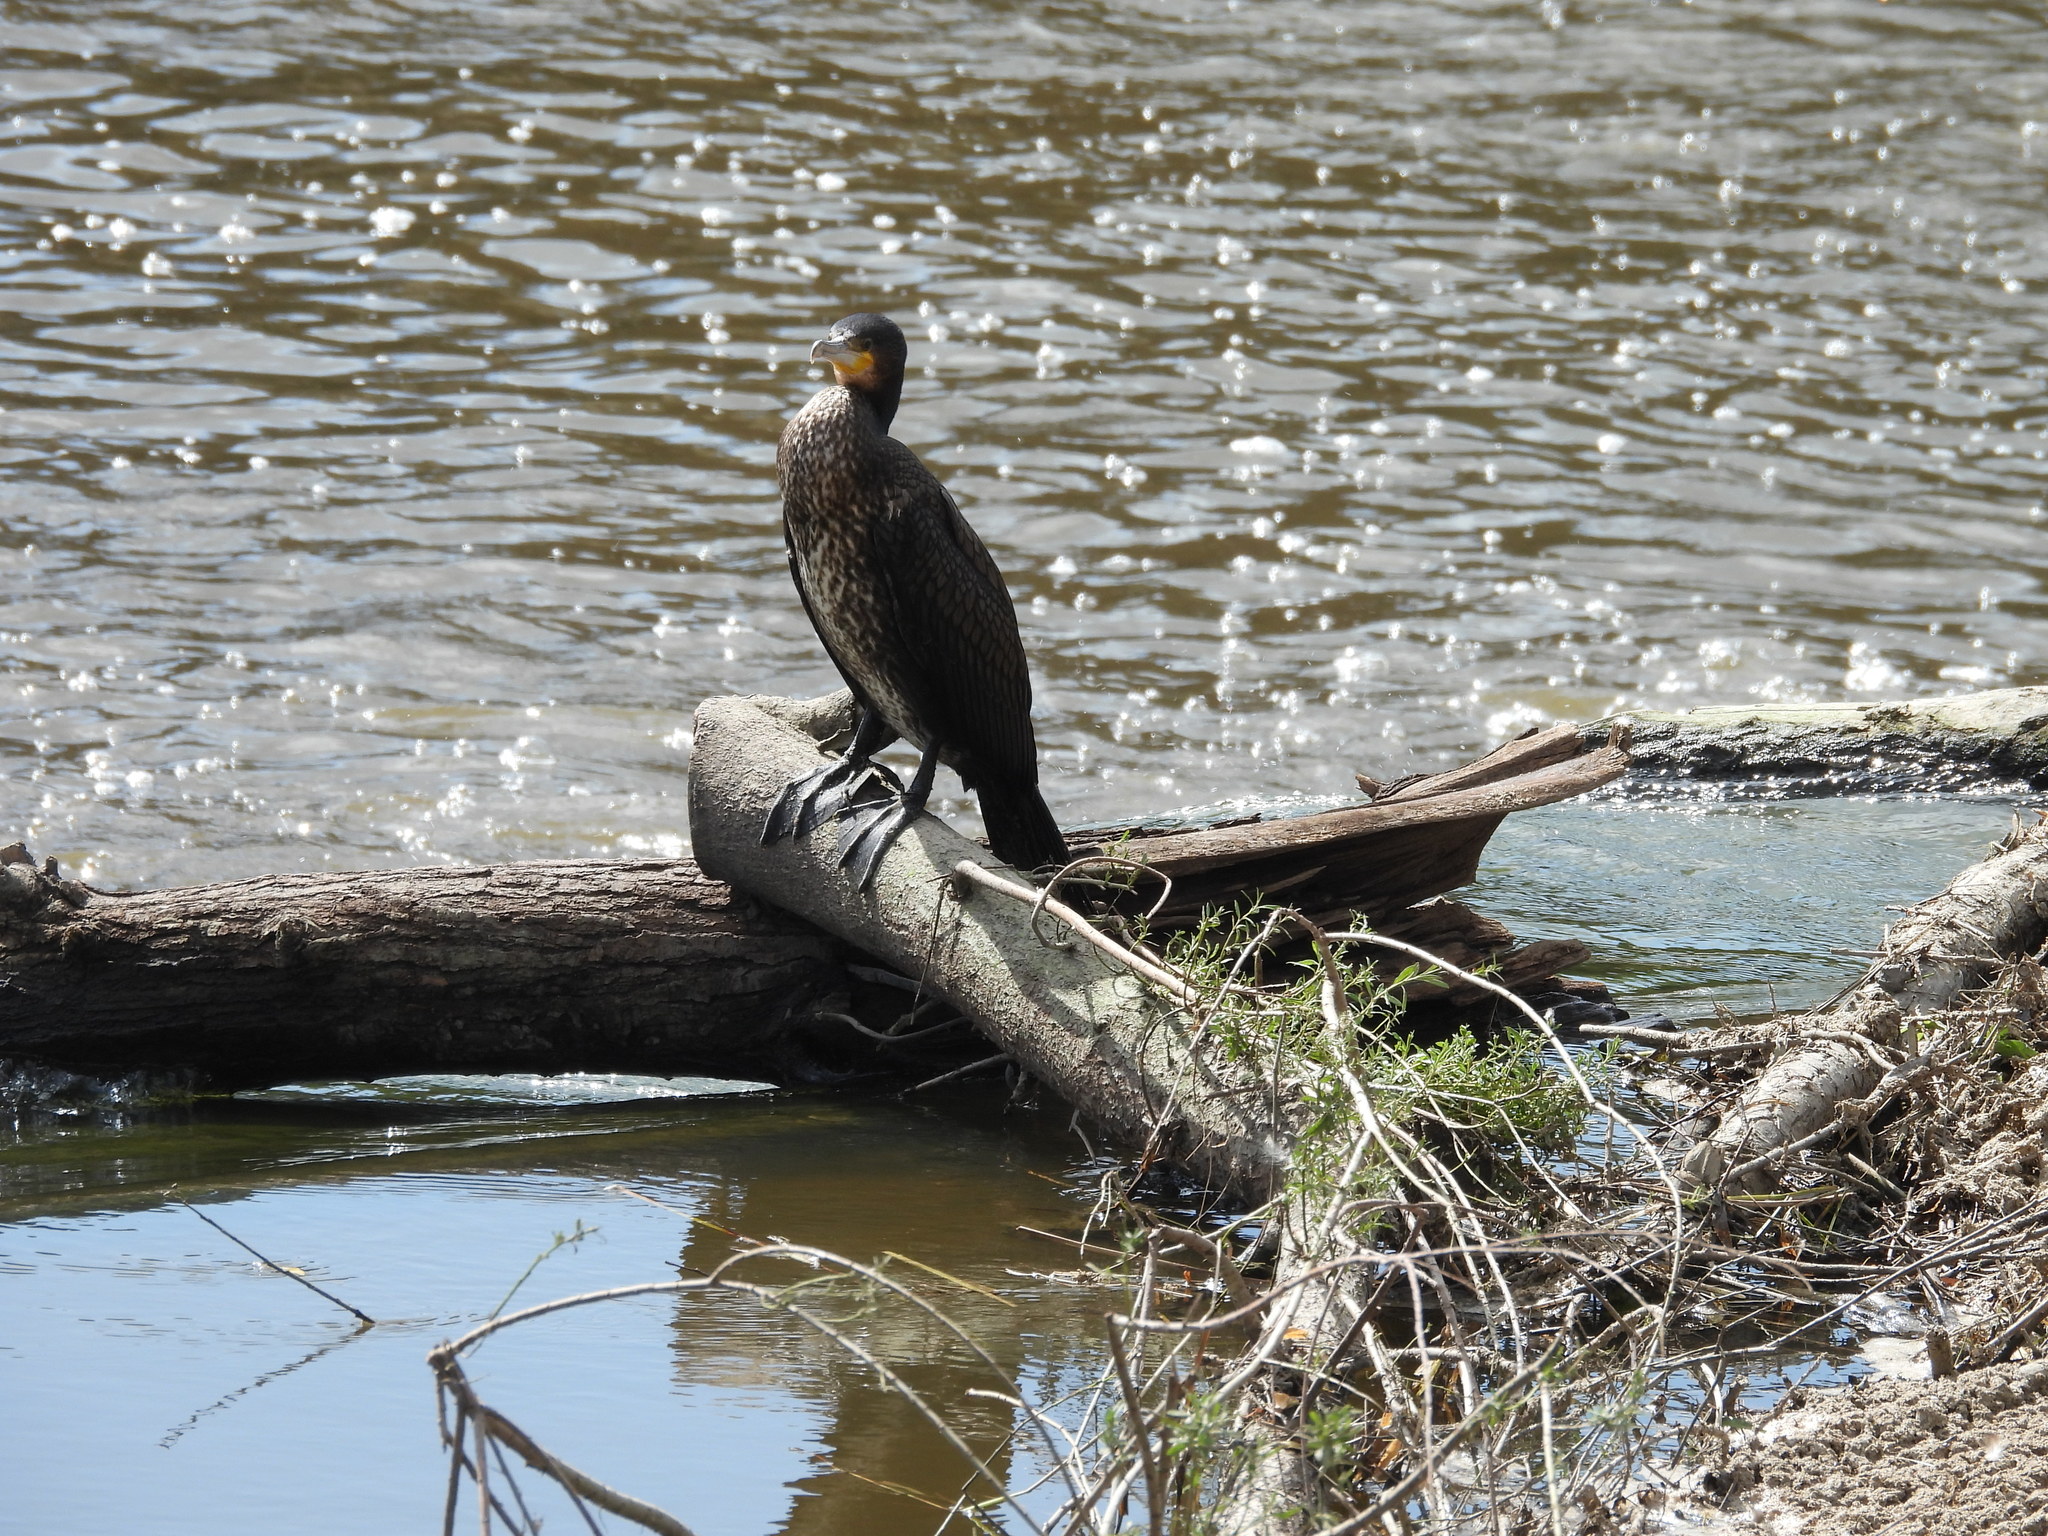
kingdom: Animalia
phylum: Chordata
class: Aves
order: Suliformes
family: Phalacrocoracidae
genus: Phalacrocorax
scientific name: Phalacrocorax carbo
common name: Great cormorant
